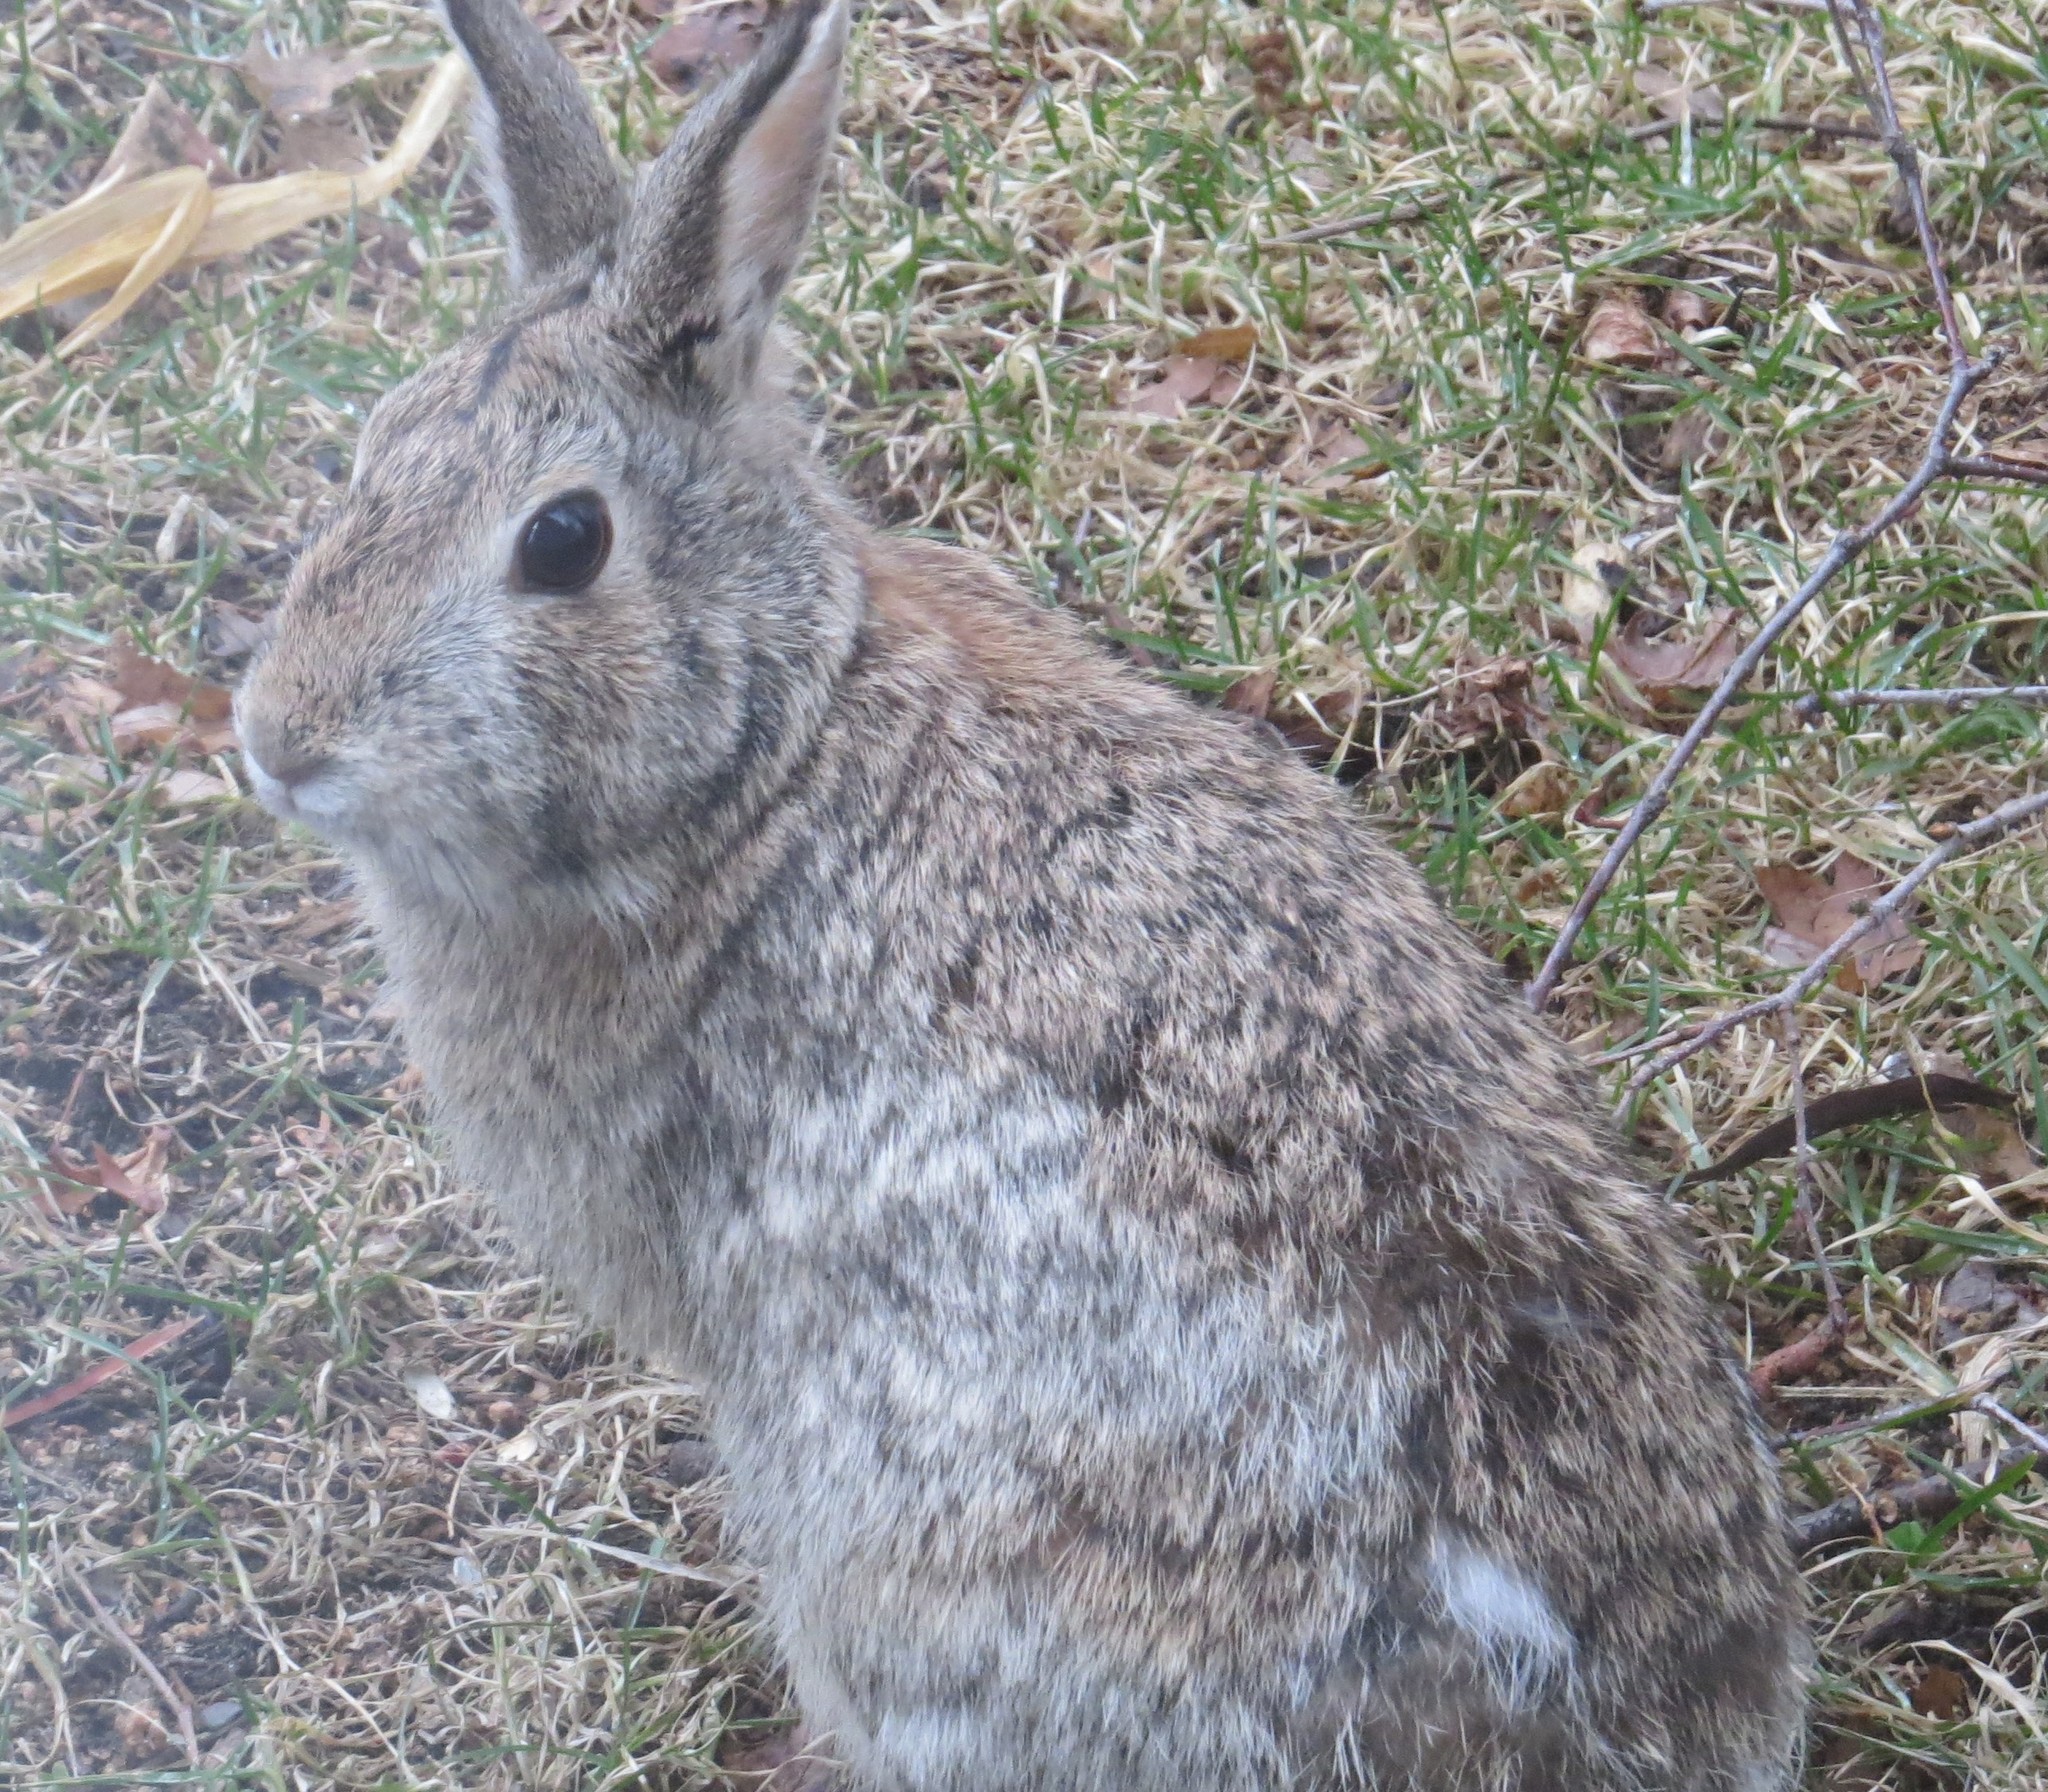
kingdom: Animalia
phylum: Chordata
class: Mammalia
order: Lagomorpha
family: Leporidae
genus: Sylvilagus
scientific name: Sylvilagus floridanus
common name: Eastern cottontail
